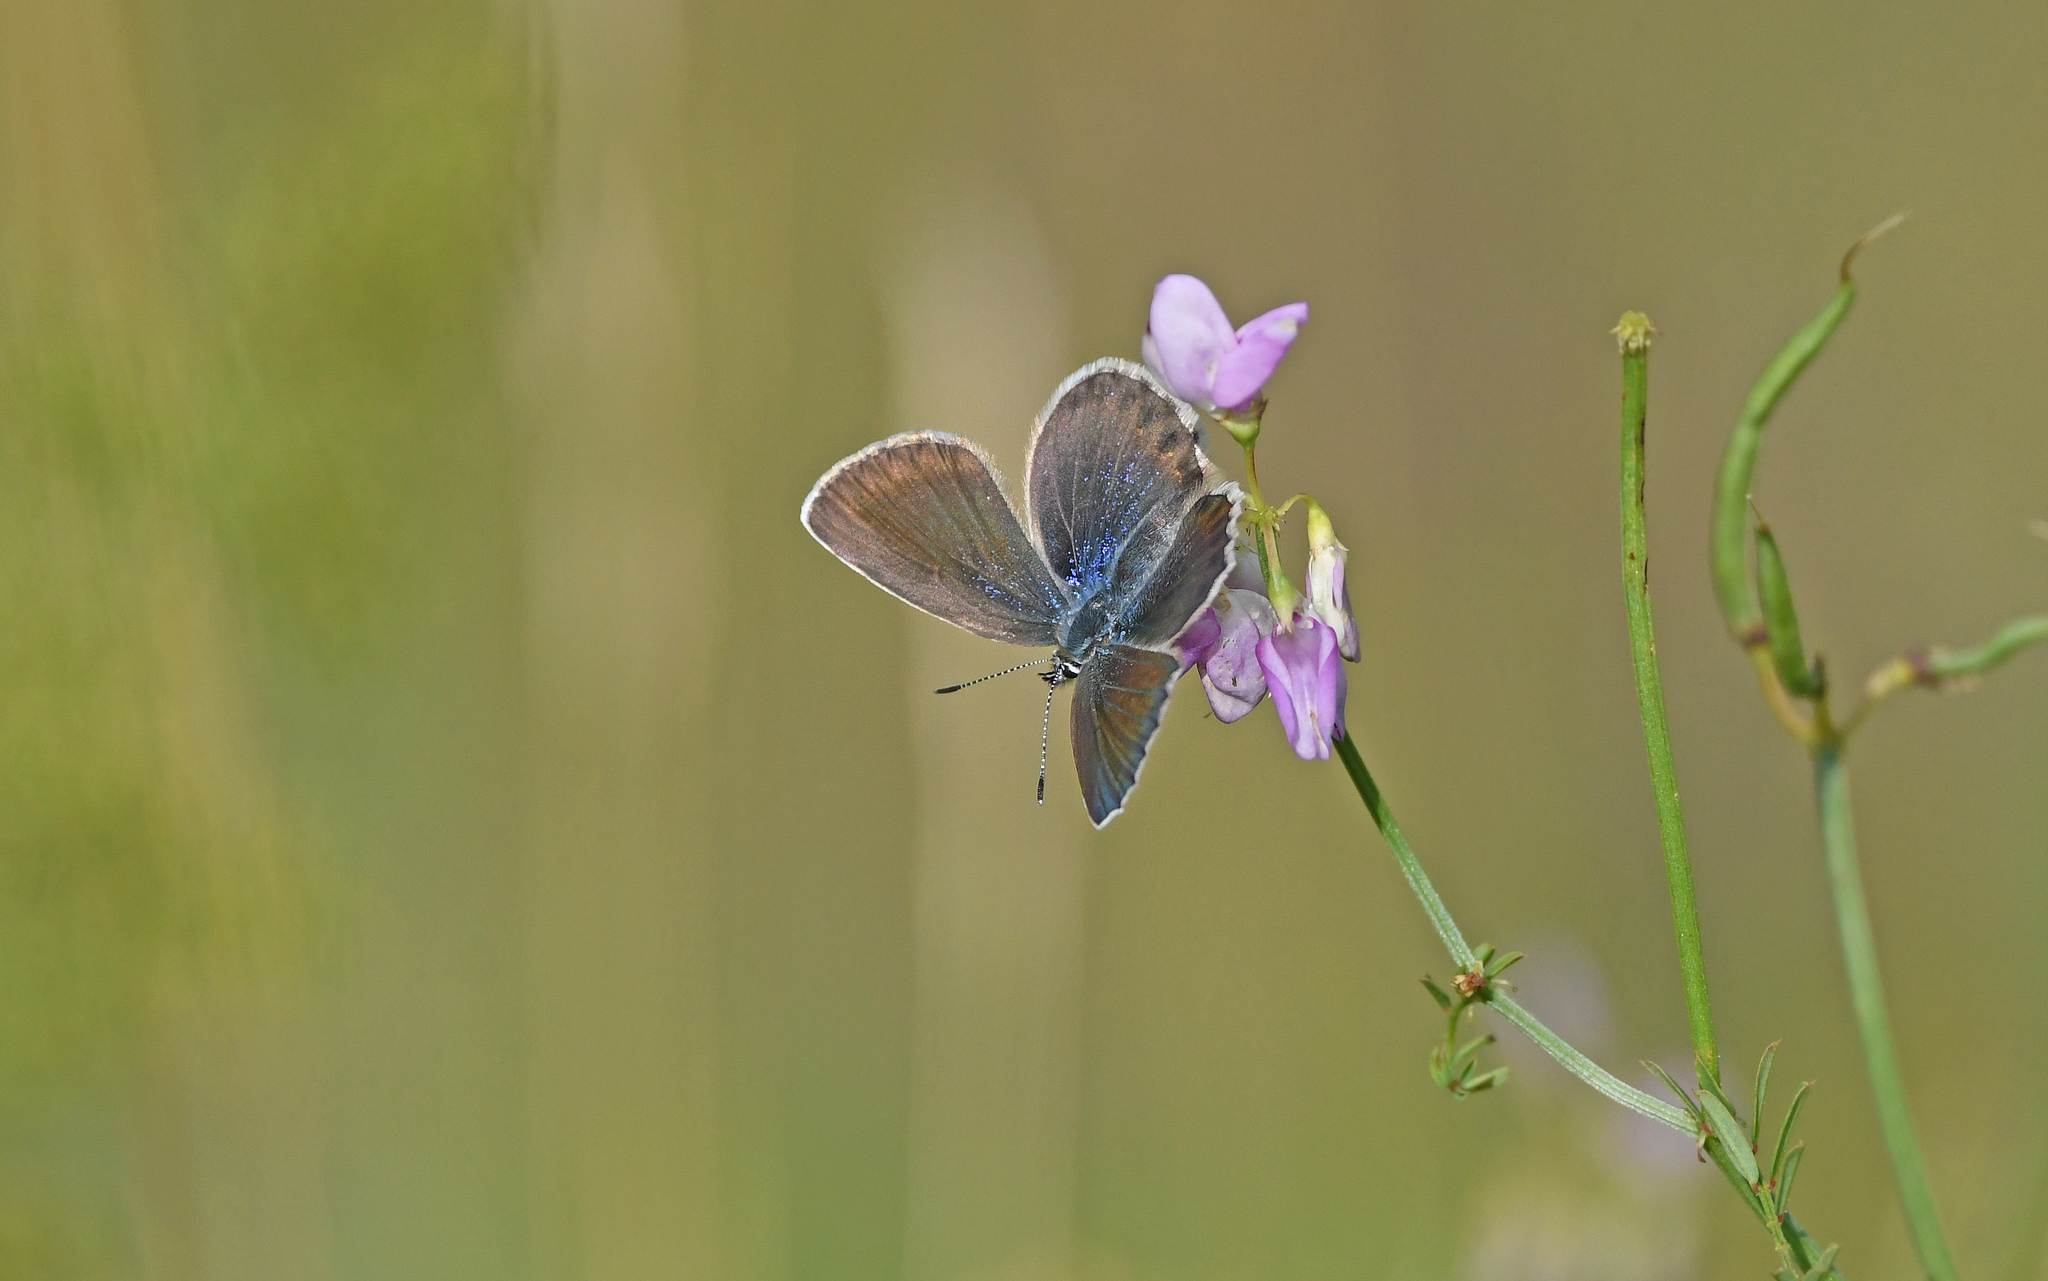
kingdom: Animalia
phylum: Arthropoda
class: Insecta
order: Lepidoptera
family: Lycaenidae
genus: Lycaeides
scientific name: Lycaeides idas
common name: Northern blue
